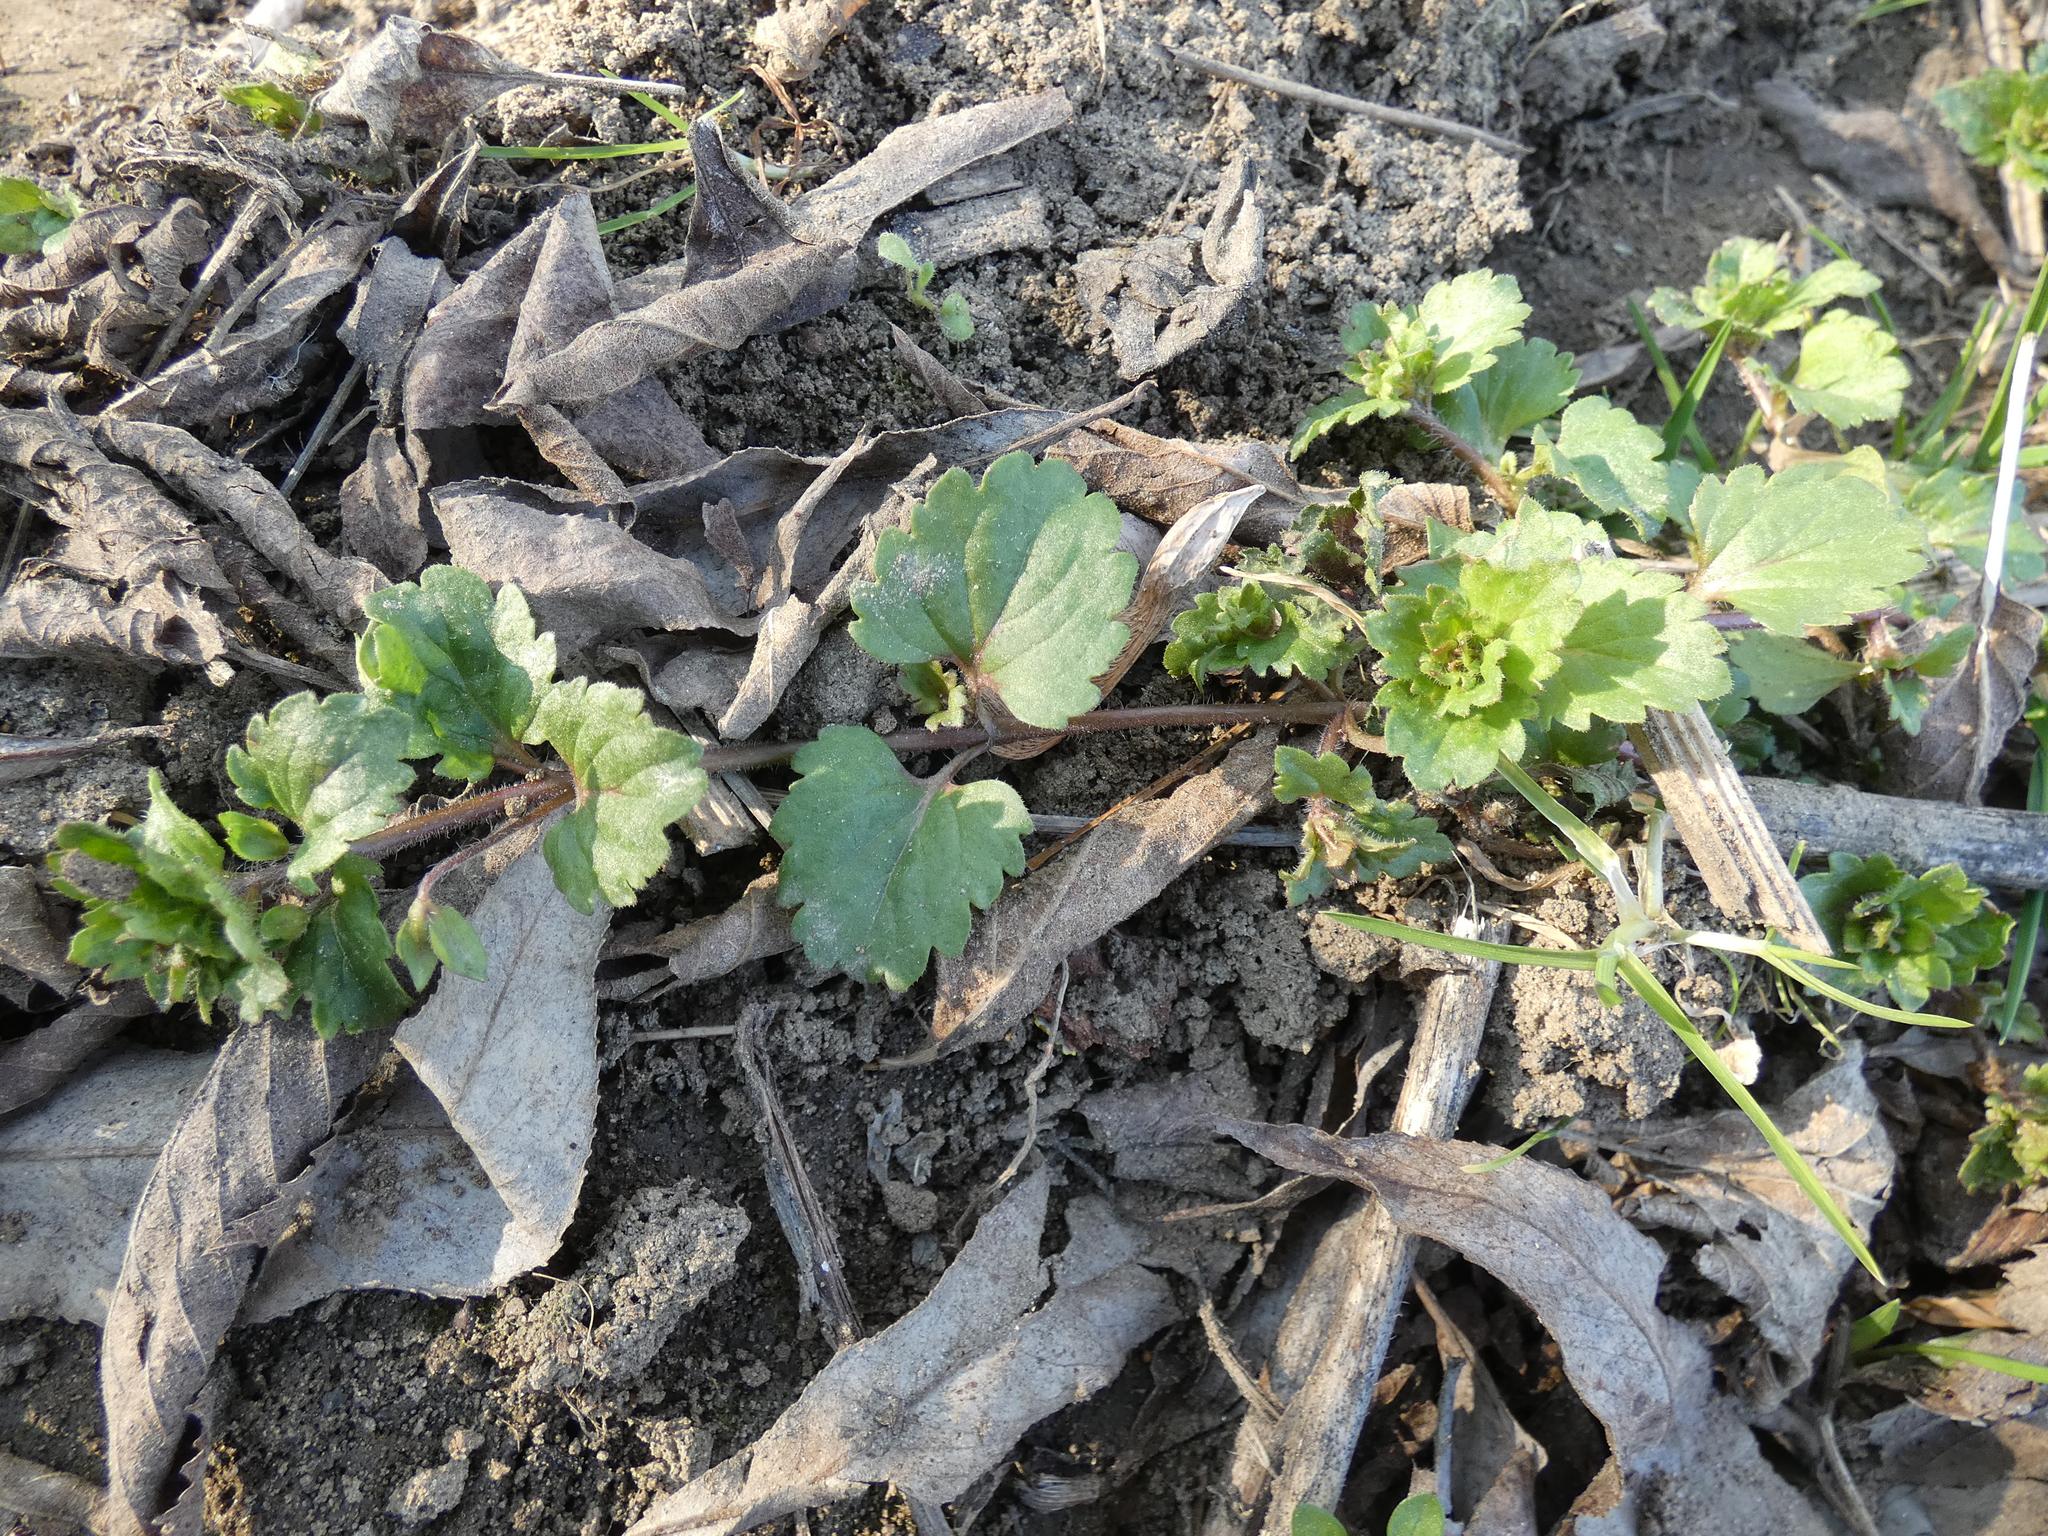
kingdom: Plantae
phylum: Tracheophyta
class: Magnoliopsida
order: Lamiales
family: Plantaginaceae
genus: Veronica
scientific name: Veronica persica
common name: Common field-speedwell
